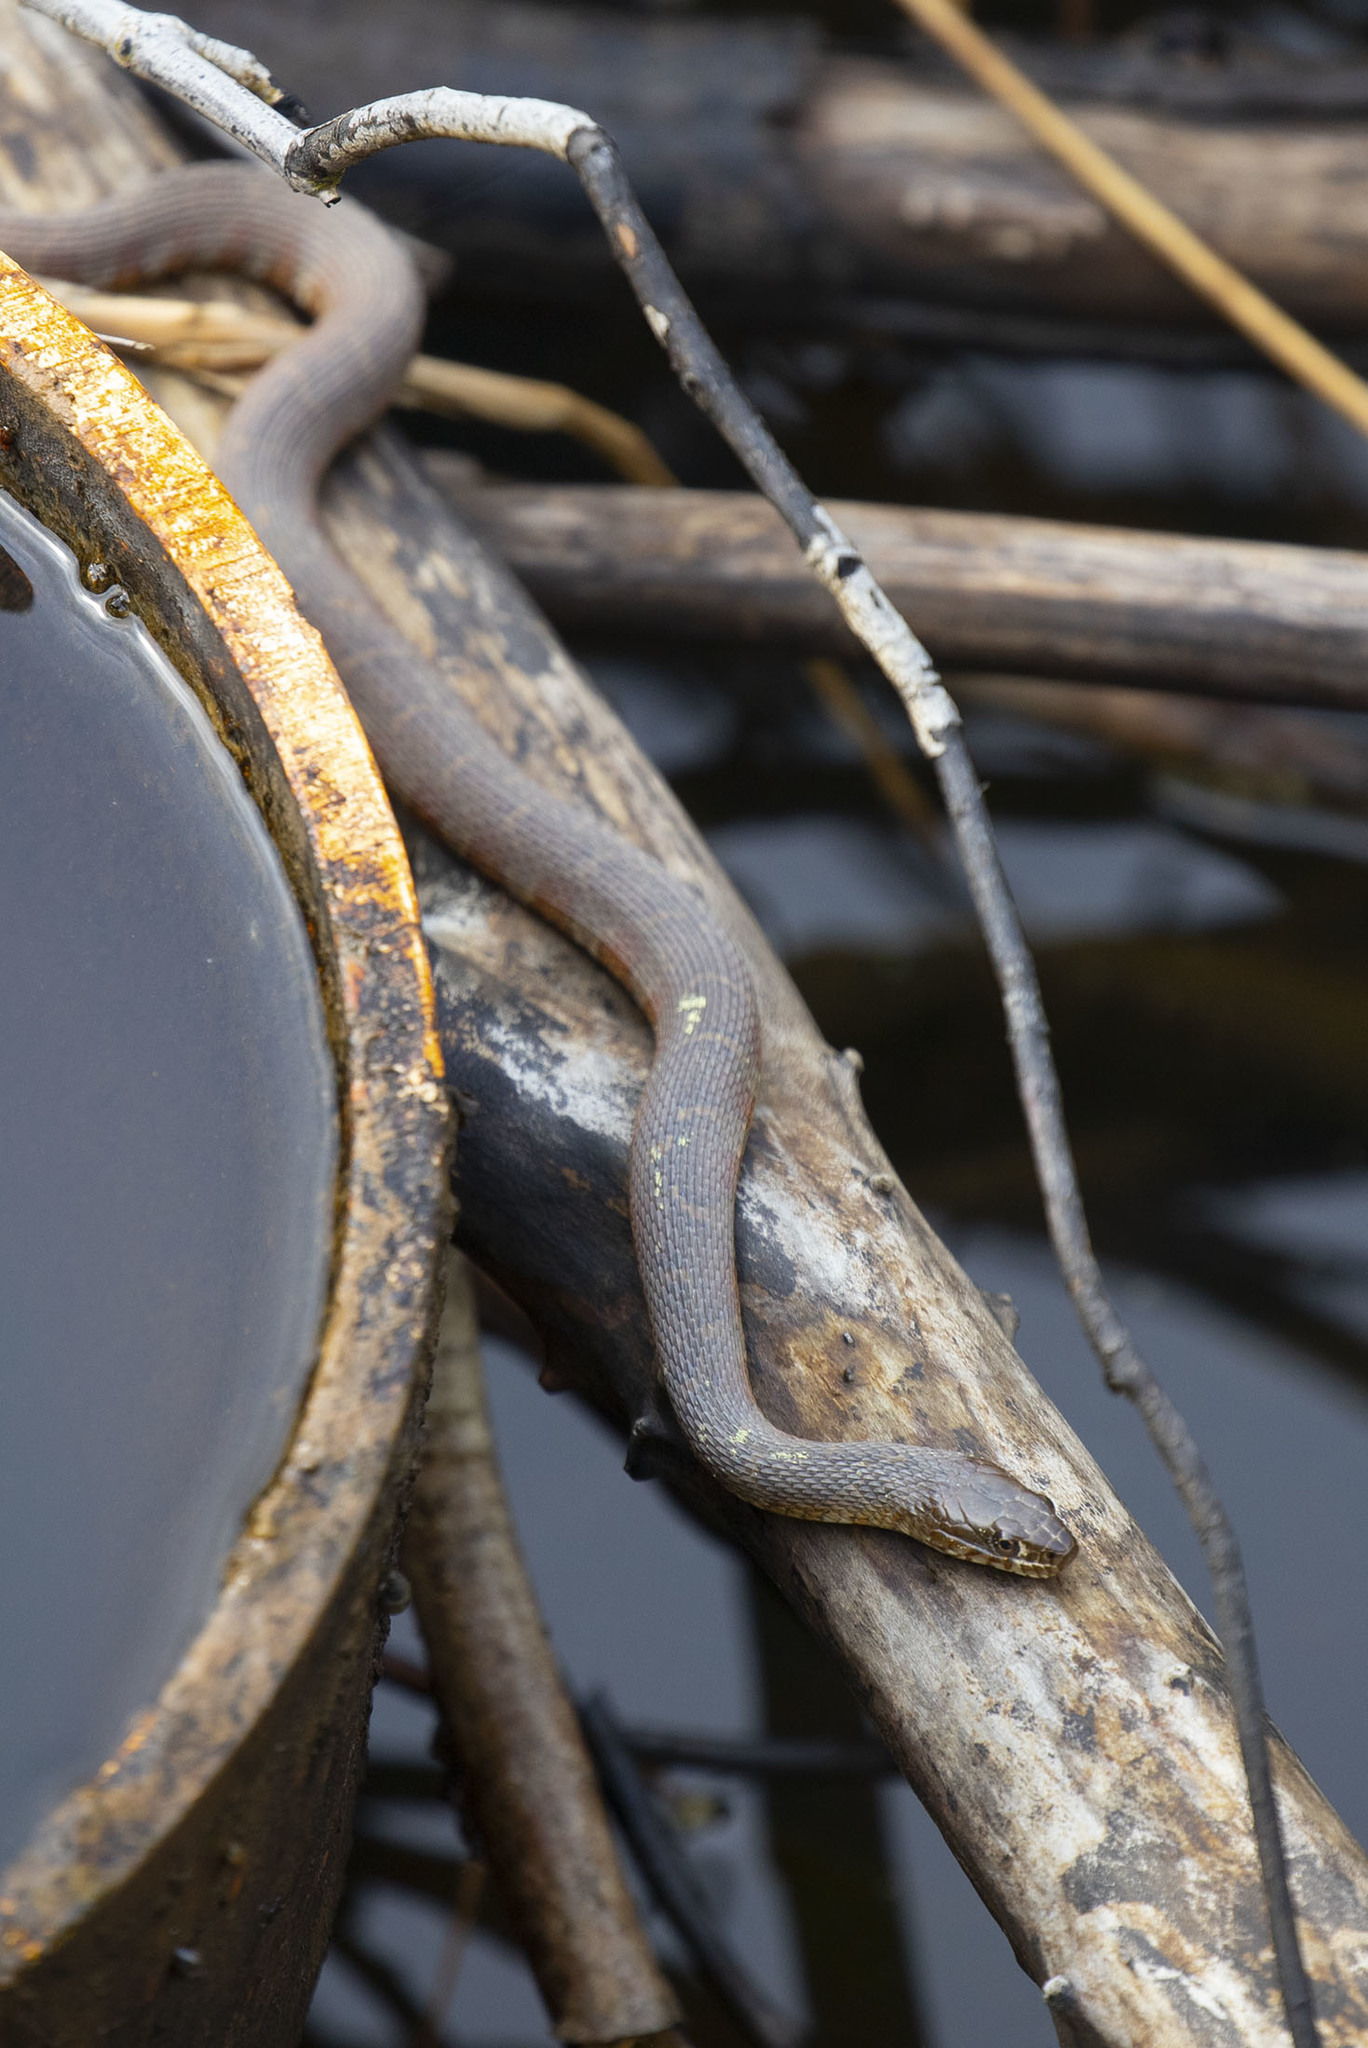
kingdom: Animalia
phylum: Chordata
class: Squamata
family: Colubridae
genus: Nerodia
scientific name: Nerodia sipedon
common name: Northern water snake
